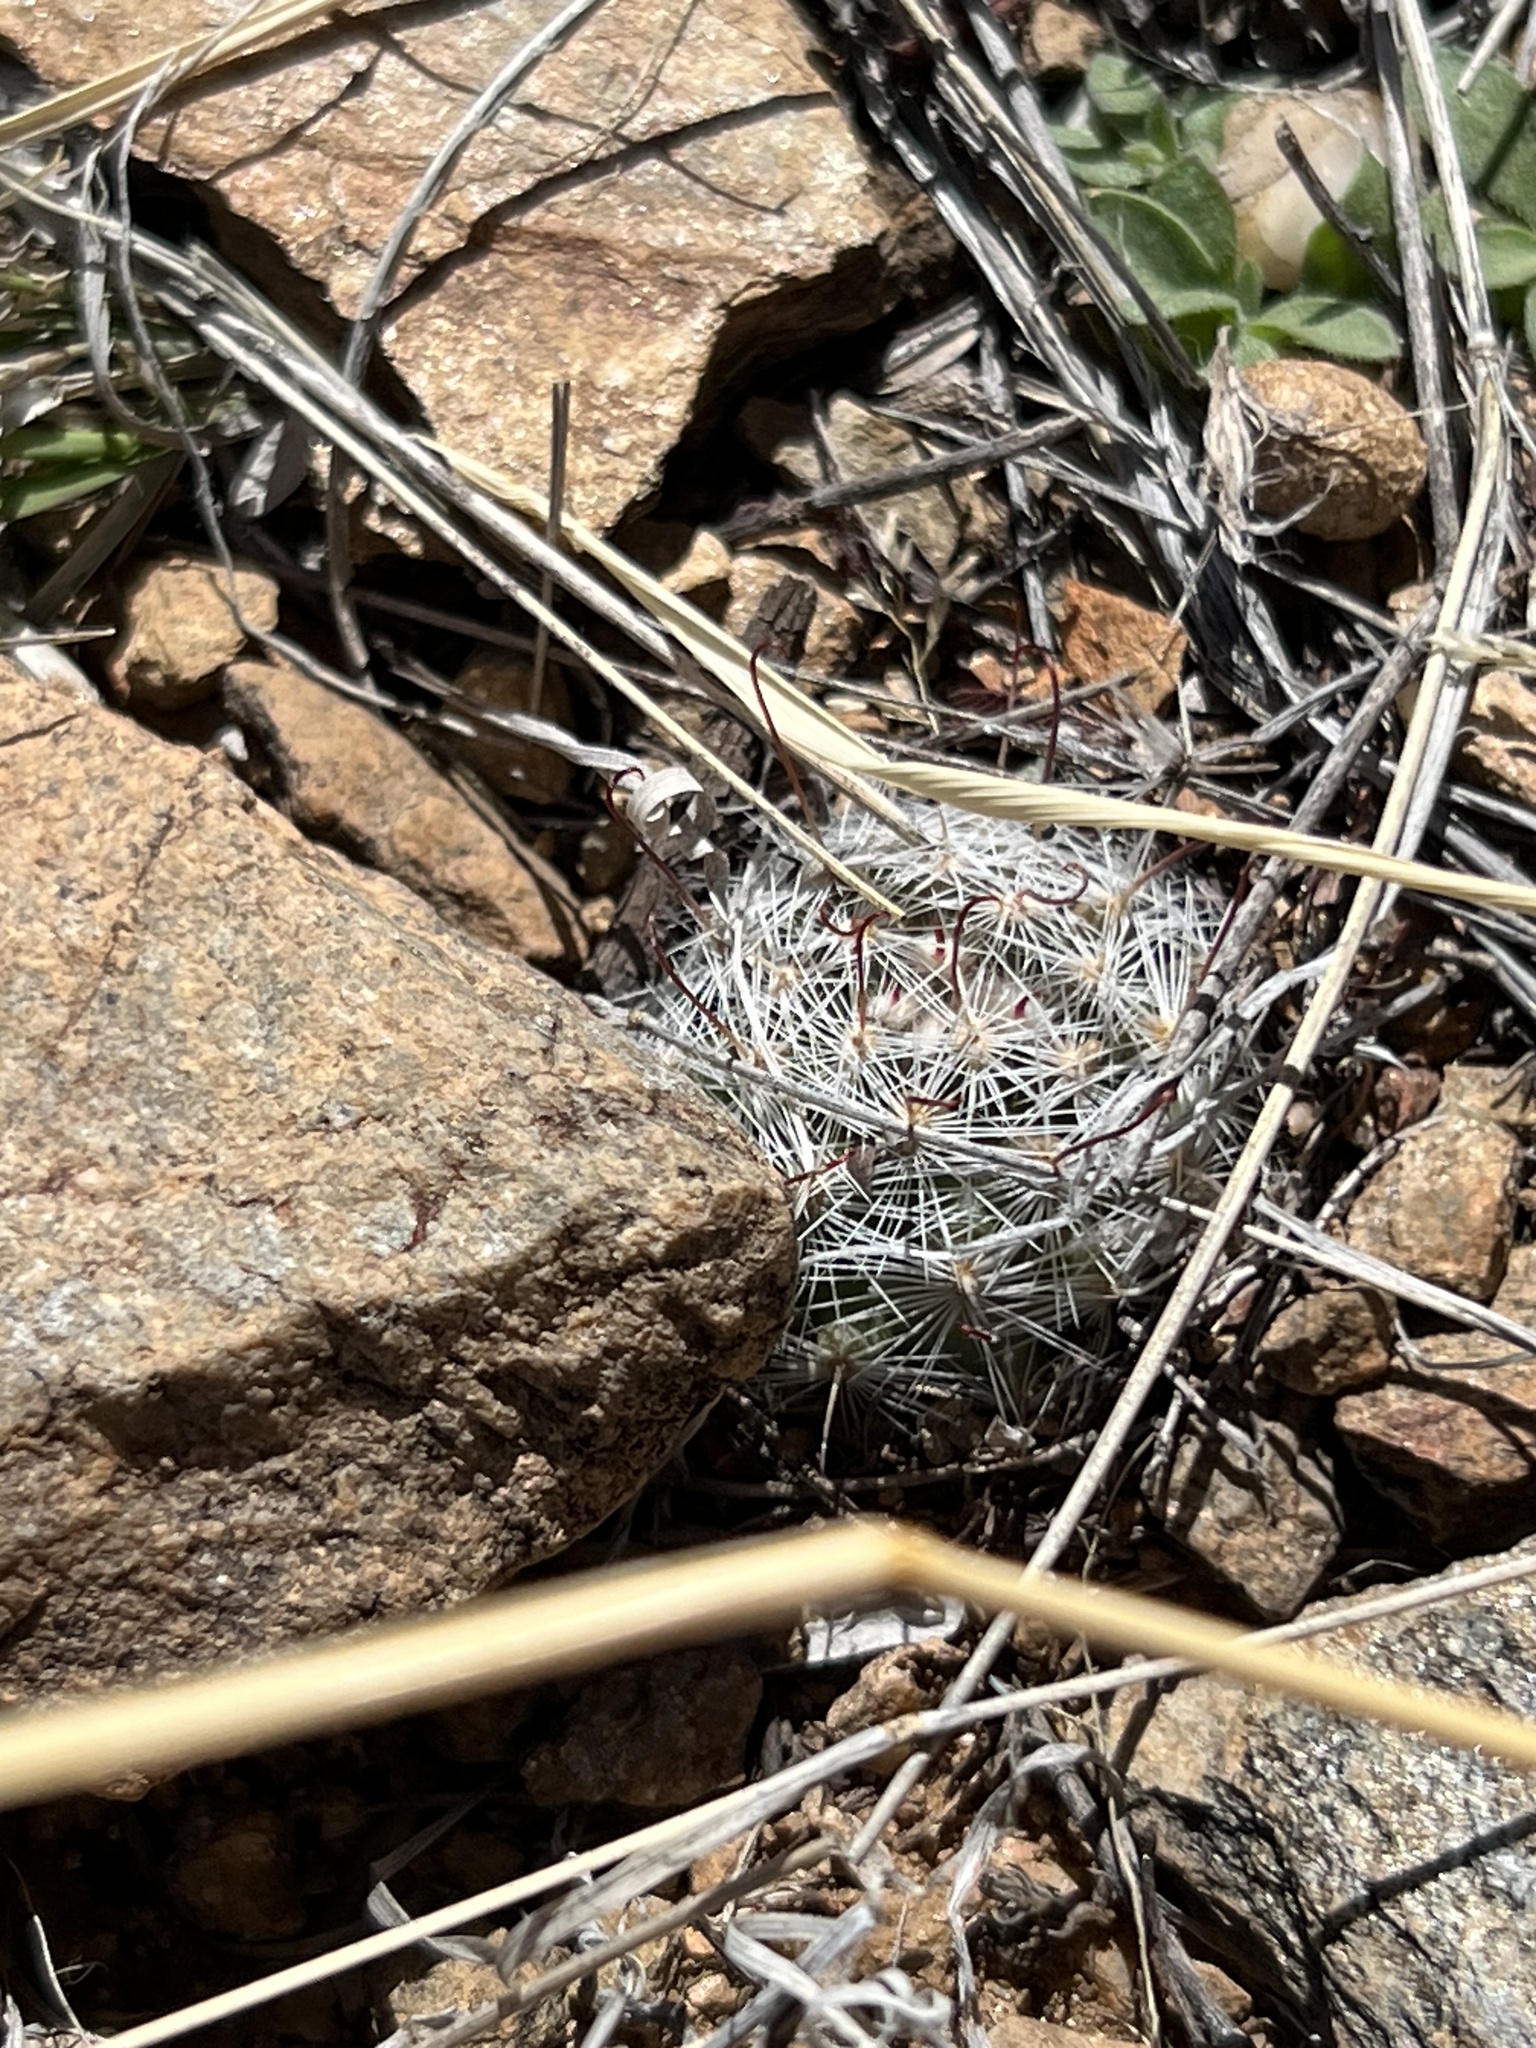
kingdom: Plantae
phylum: Tracheophyta
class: Magnoliopsida
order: Caryophyllales
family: Cactaceae
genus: Cochemiea
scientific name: Cochemiea grahamii
